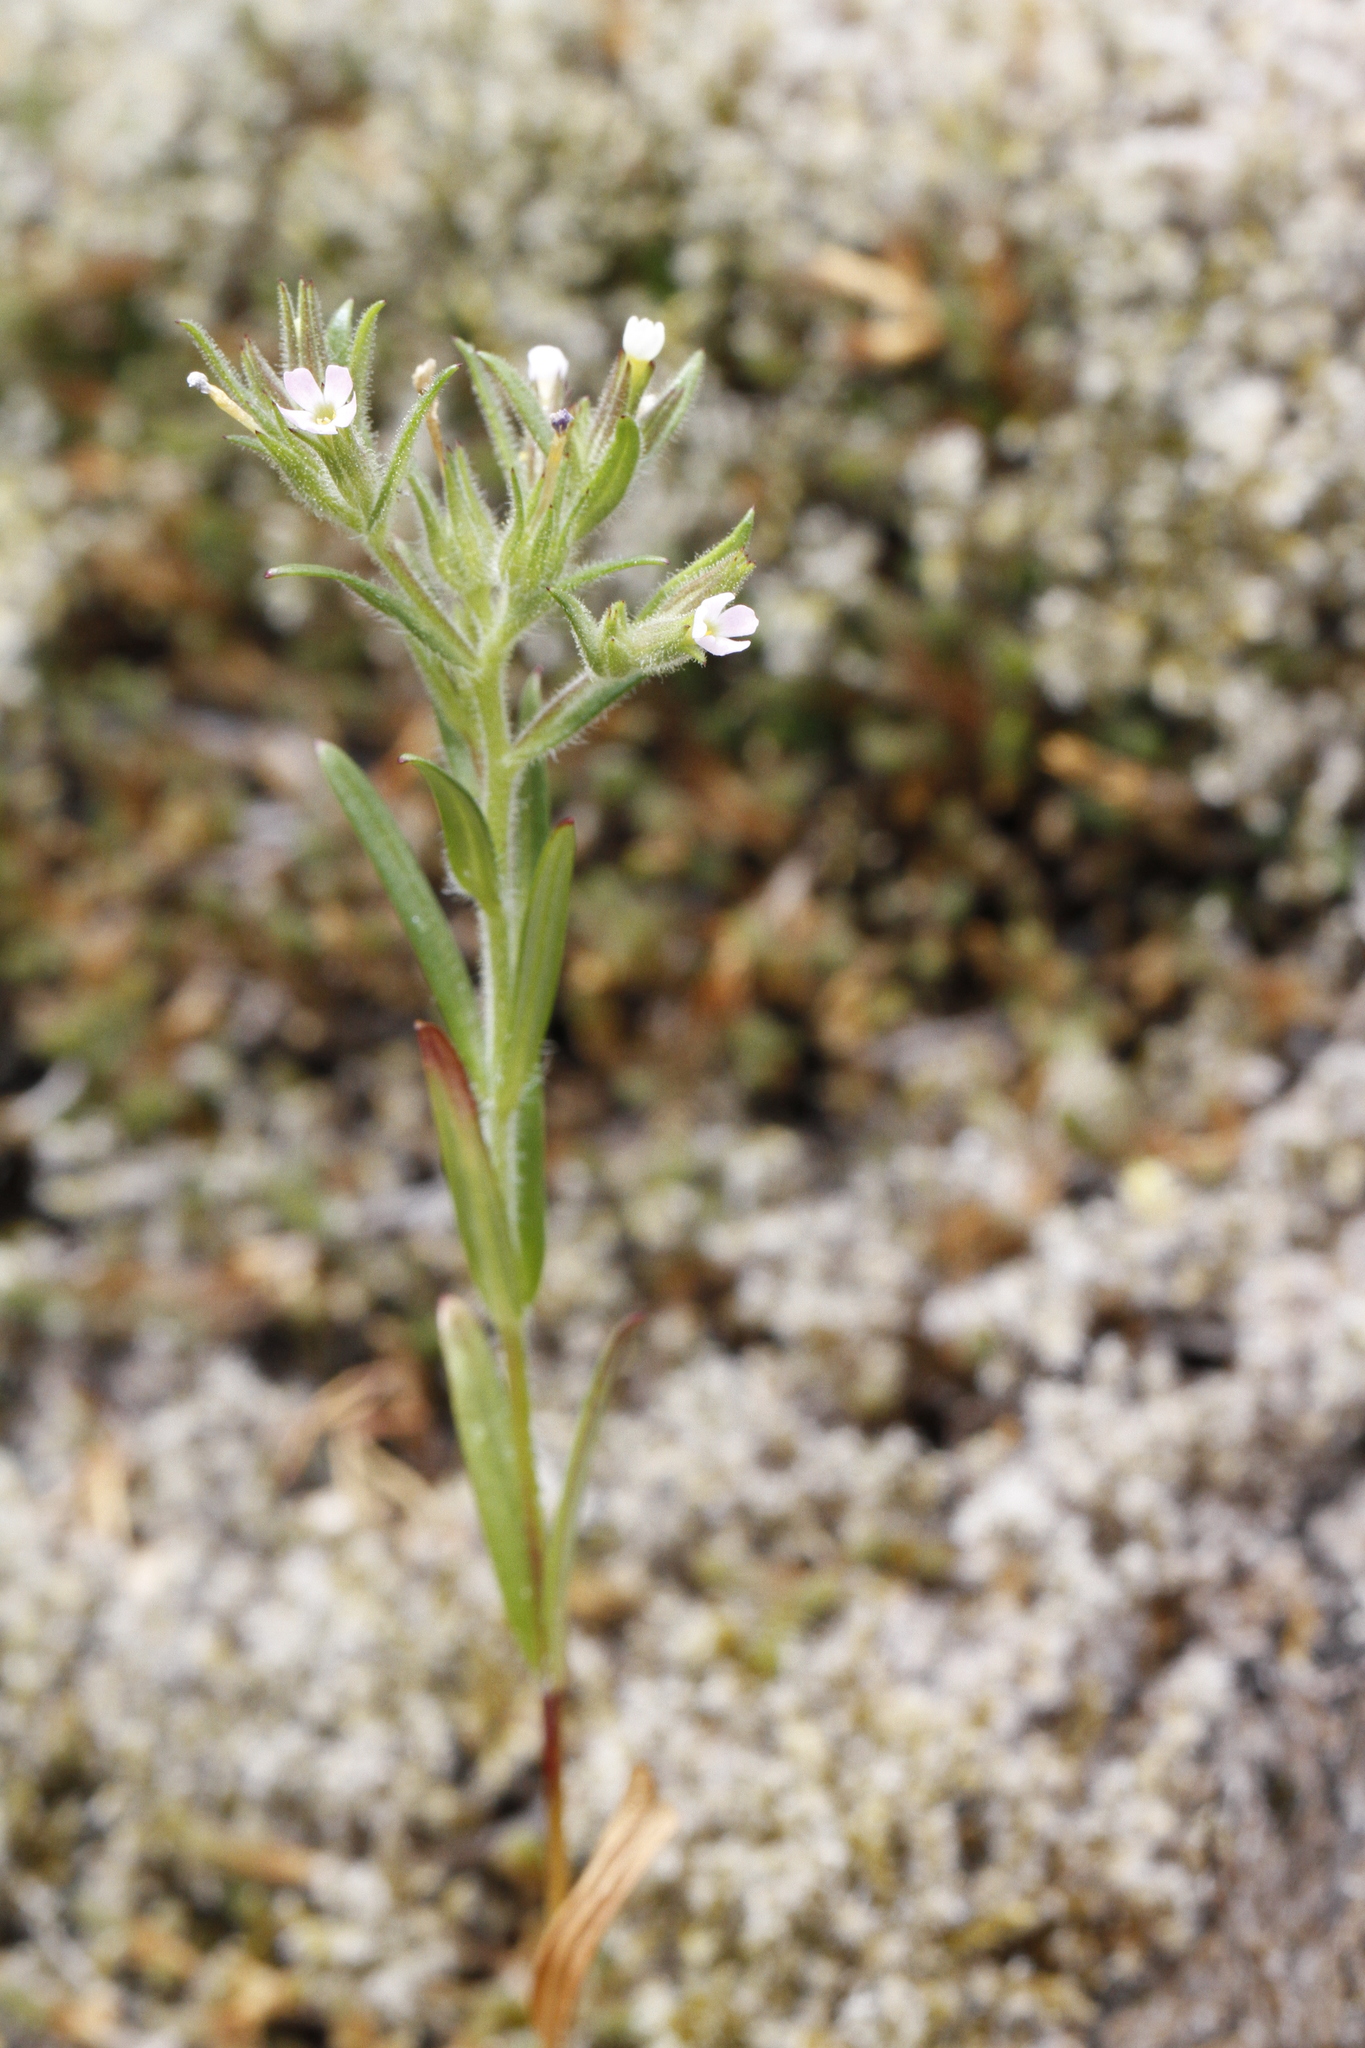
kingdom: Plantae
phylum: Tracheophyta
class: Magnoliopsida
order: Ericales
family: Polemoniaceae
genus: Phlox
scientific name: Phlox gracilis
